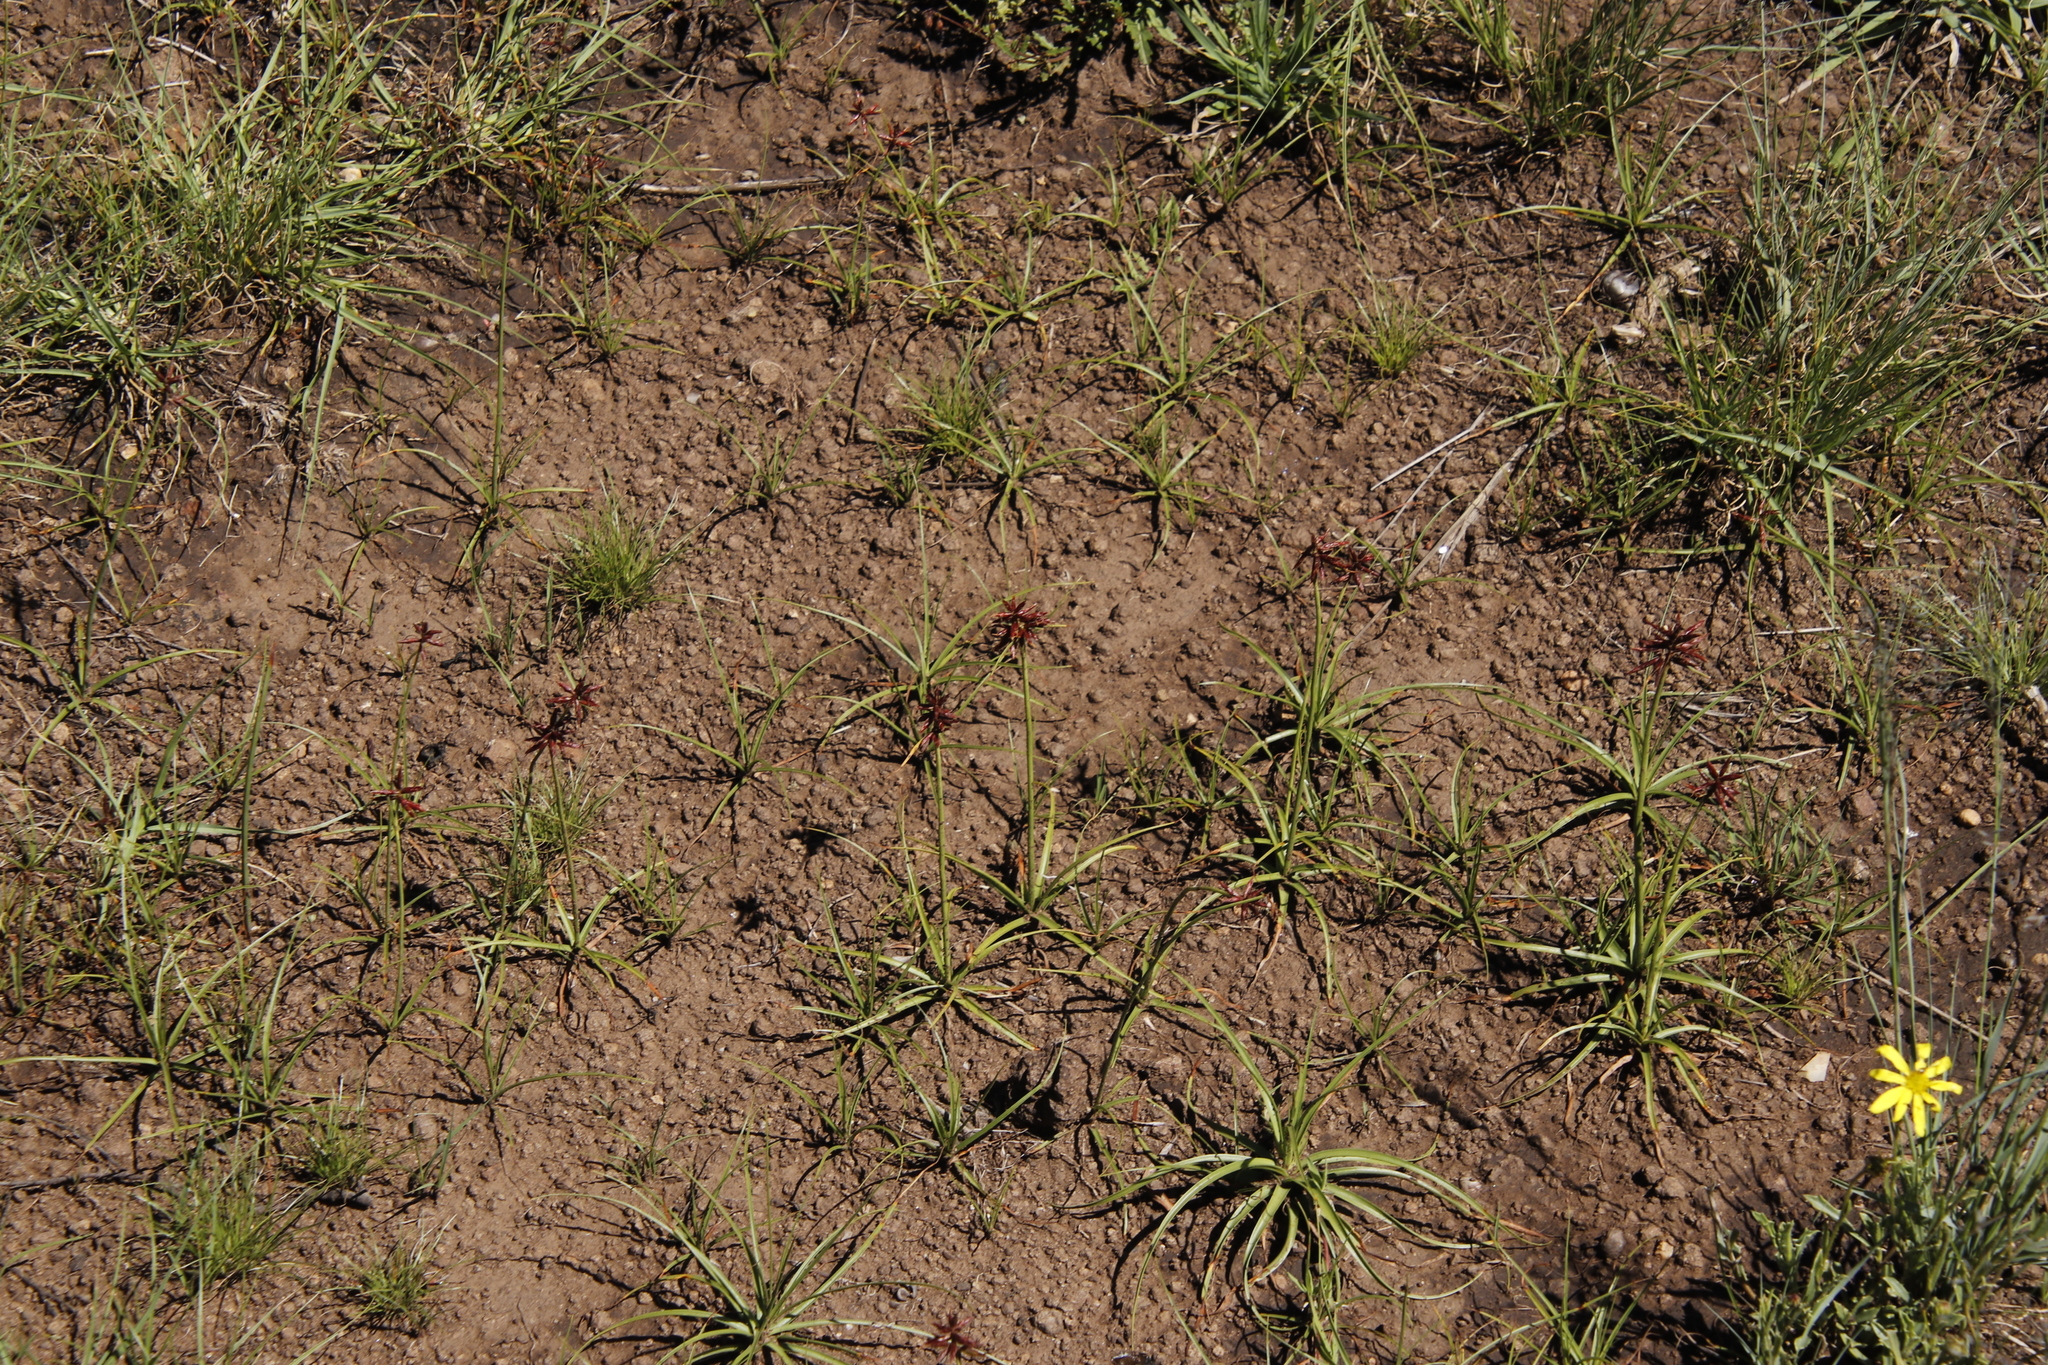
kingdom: Plantae
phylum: Tracheophyta
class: Liliopsida
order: Poales
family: Cyperaceae
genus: Cyperus
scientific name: Cyperus usitatus
